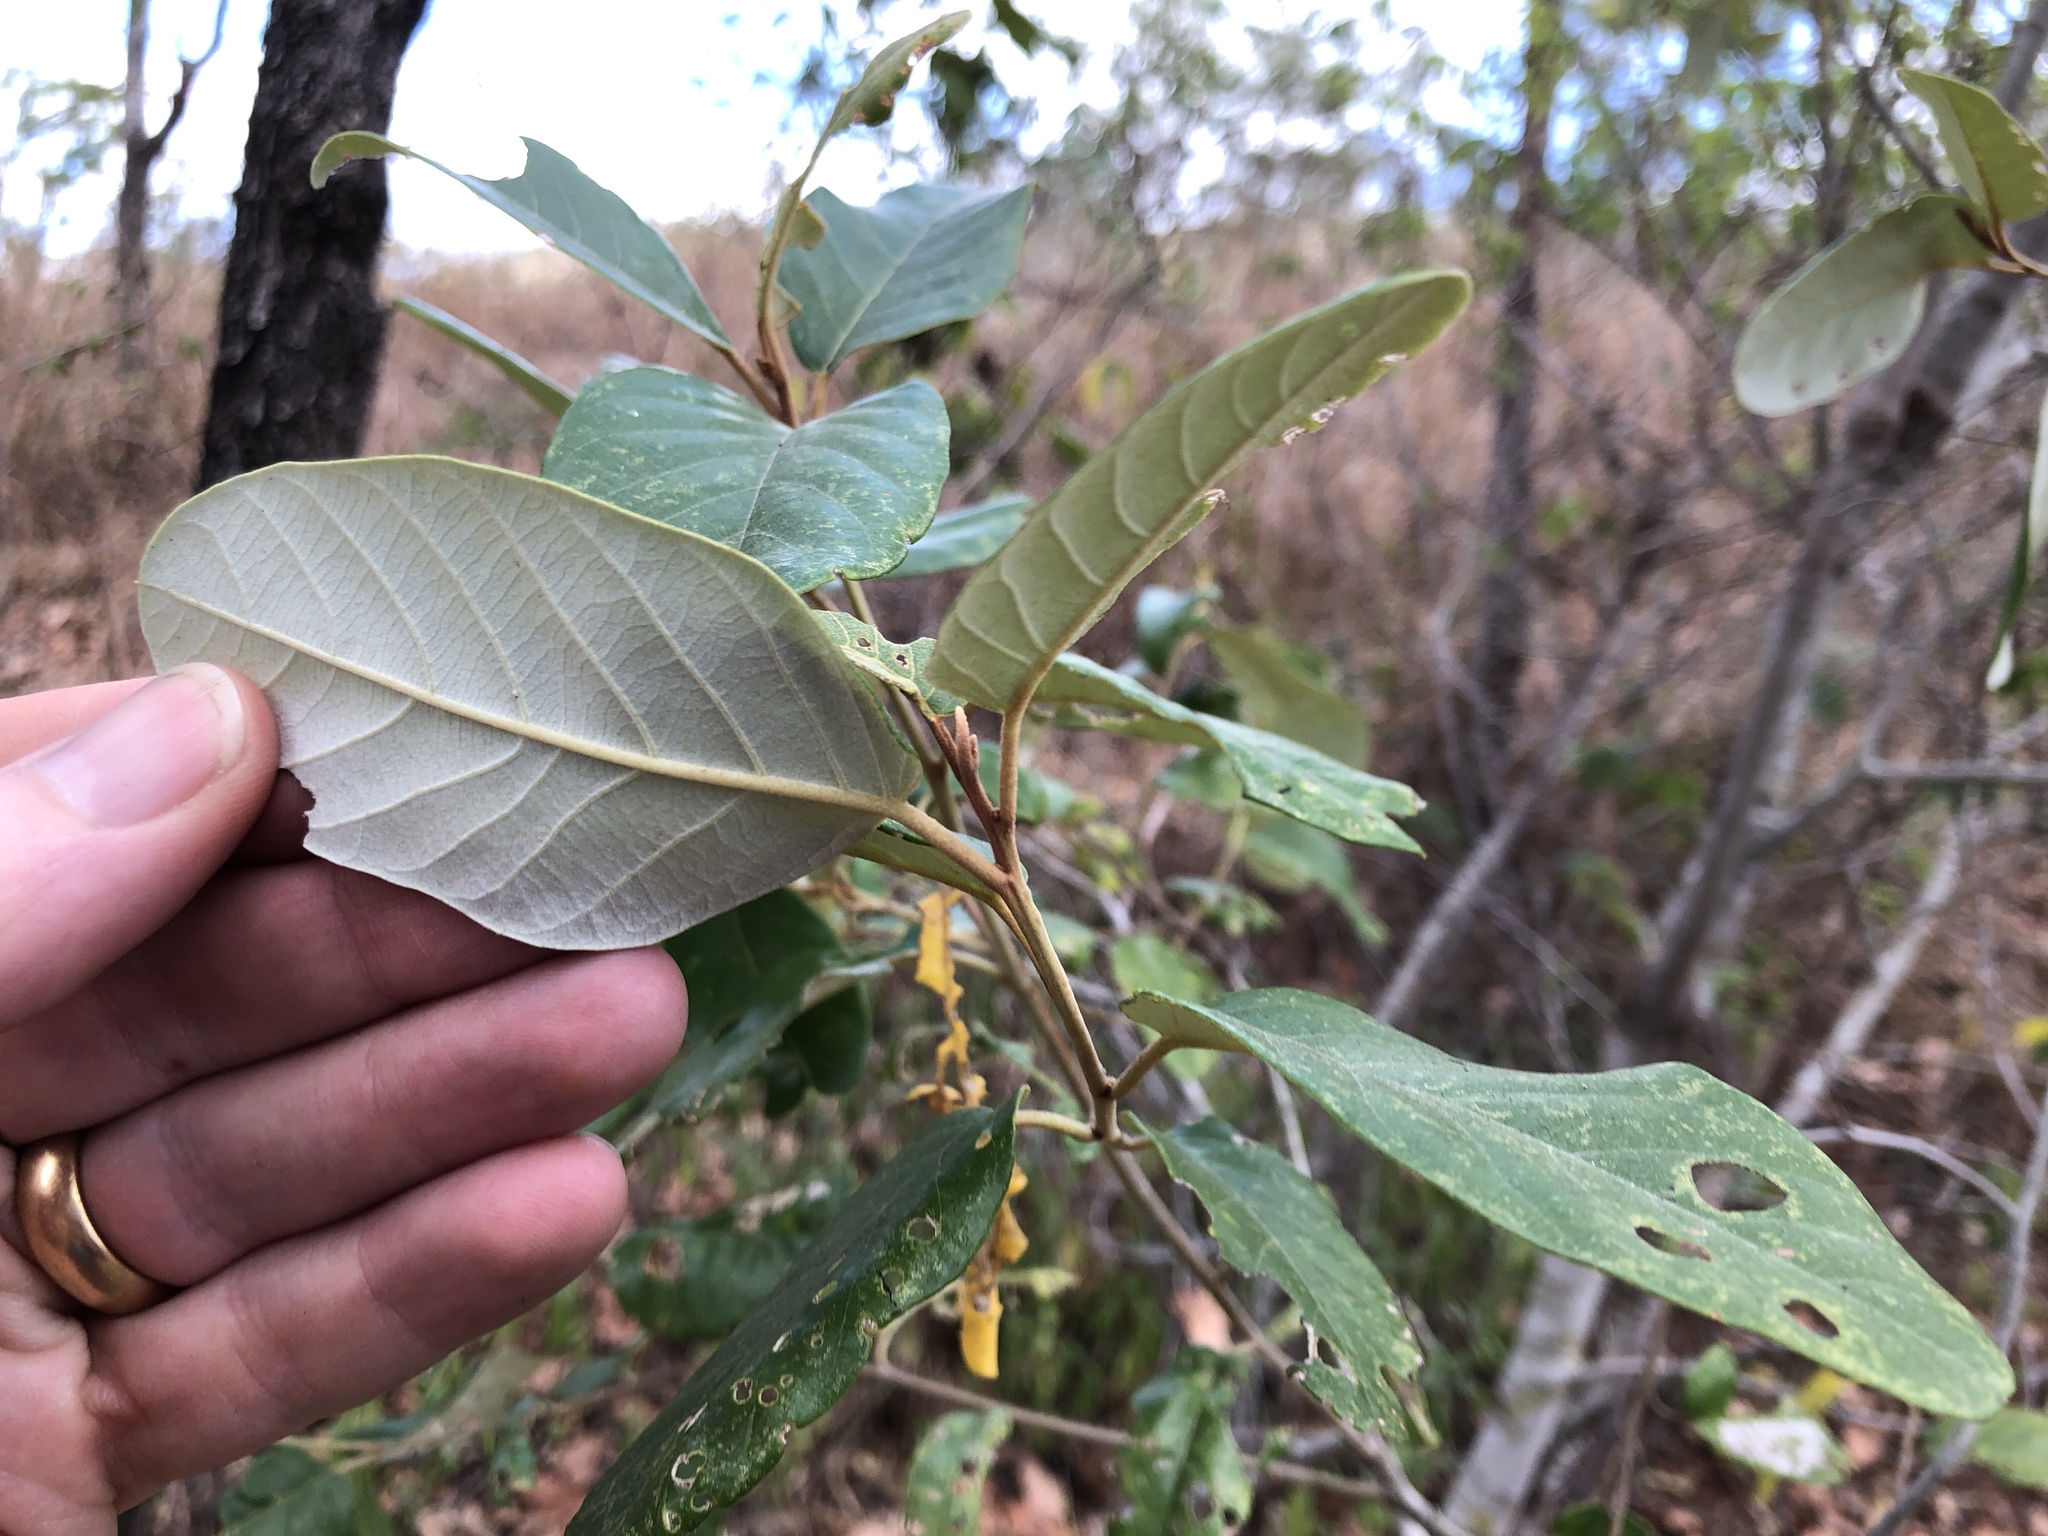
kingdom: Plantae
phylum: Tracheophyta
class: Magnoliopsida
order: Rosales
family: Rhamnaceae
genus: Alphitonia
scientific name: Alphitonia excelsa
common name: Red ash
